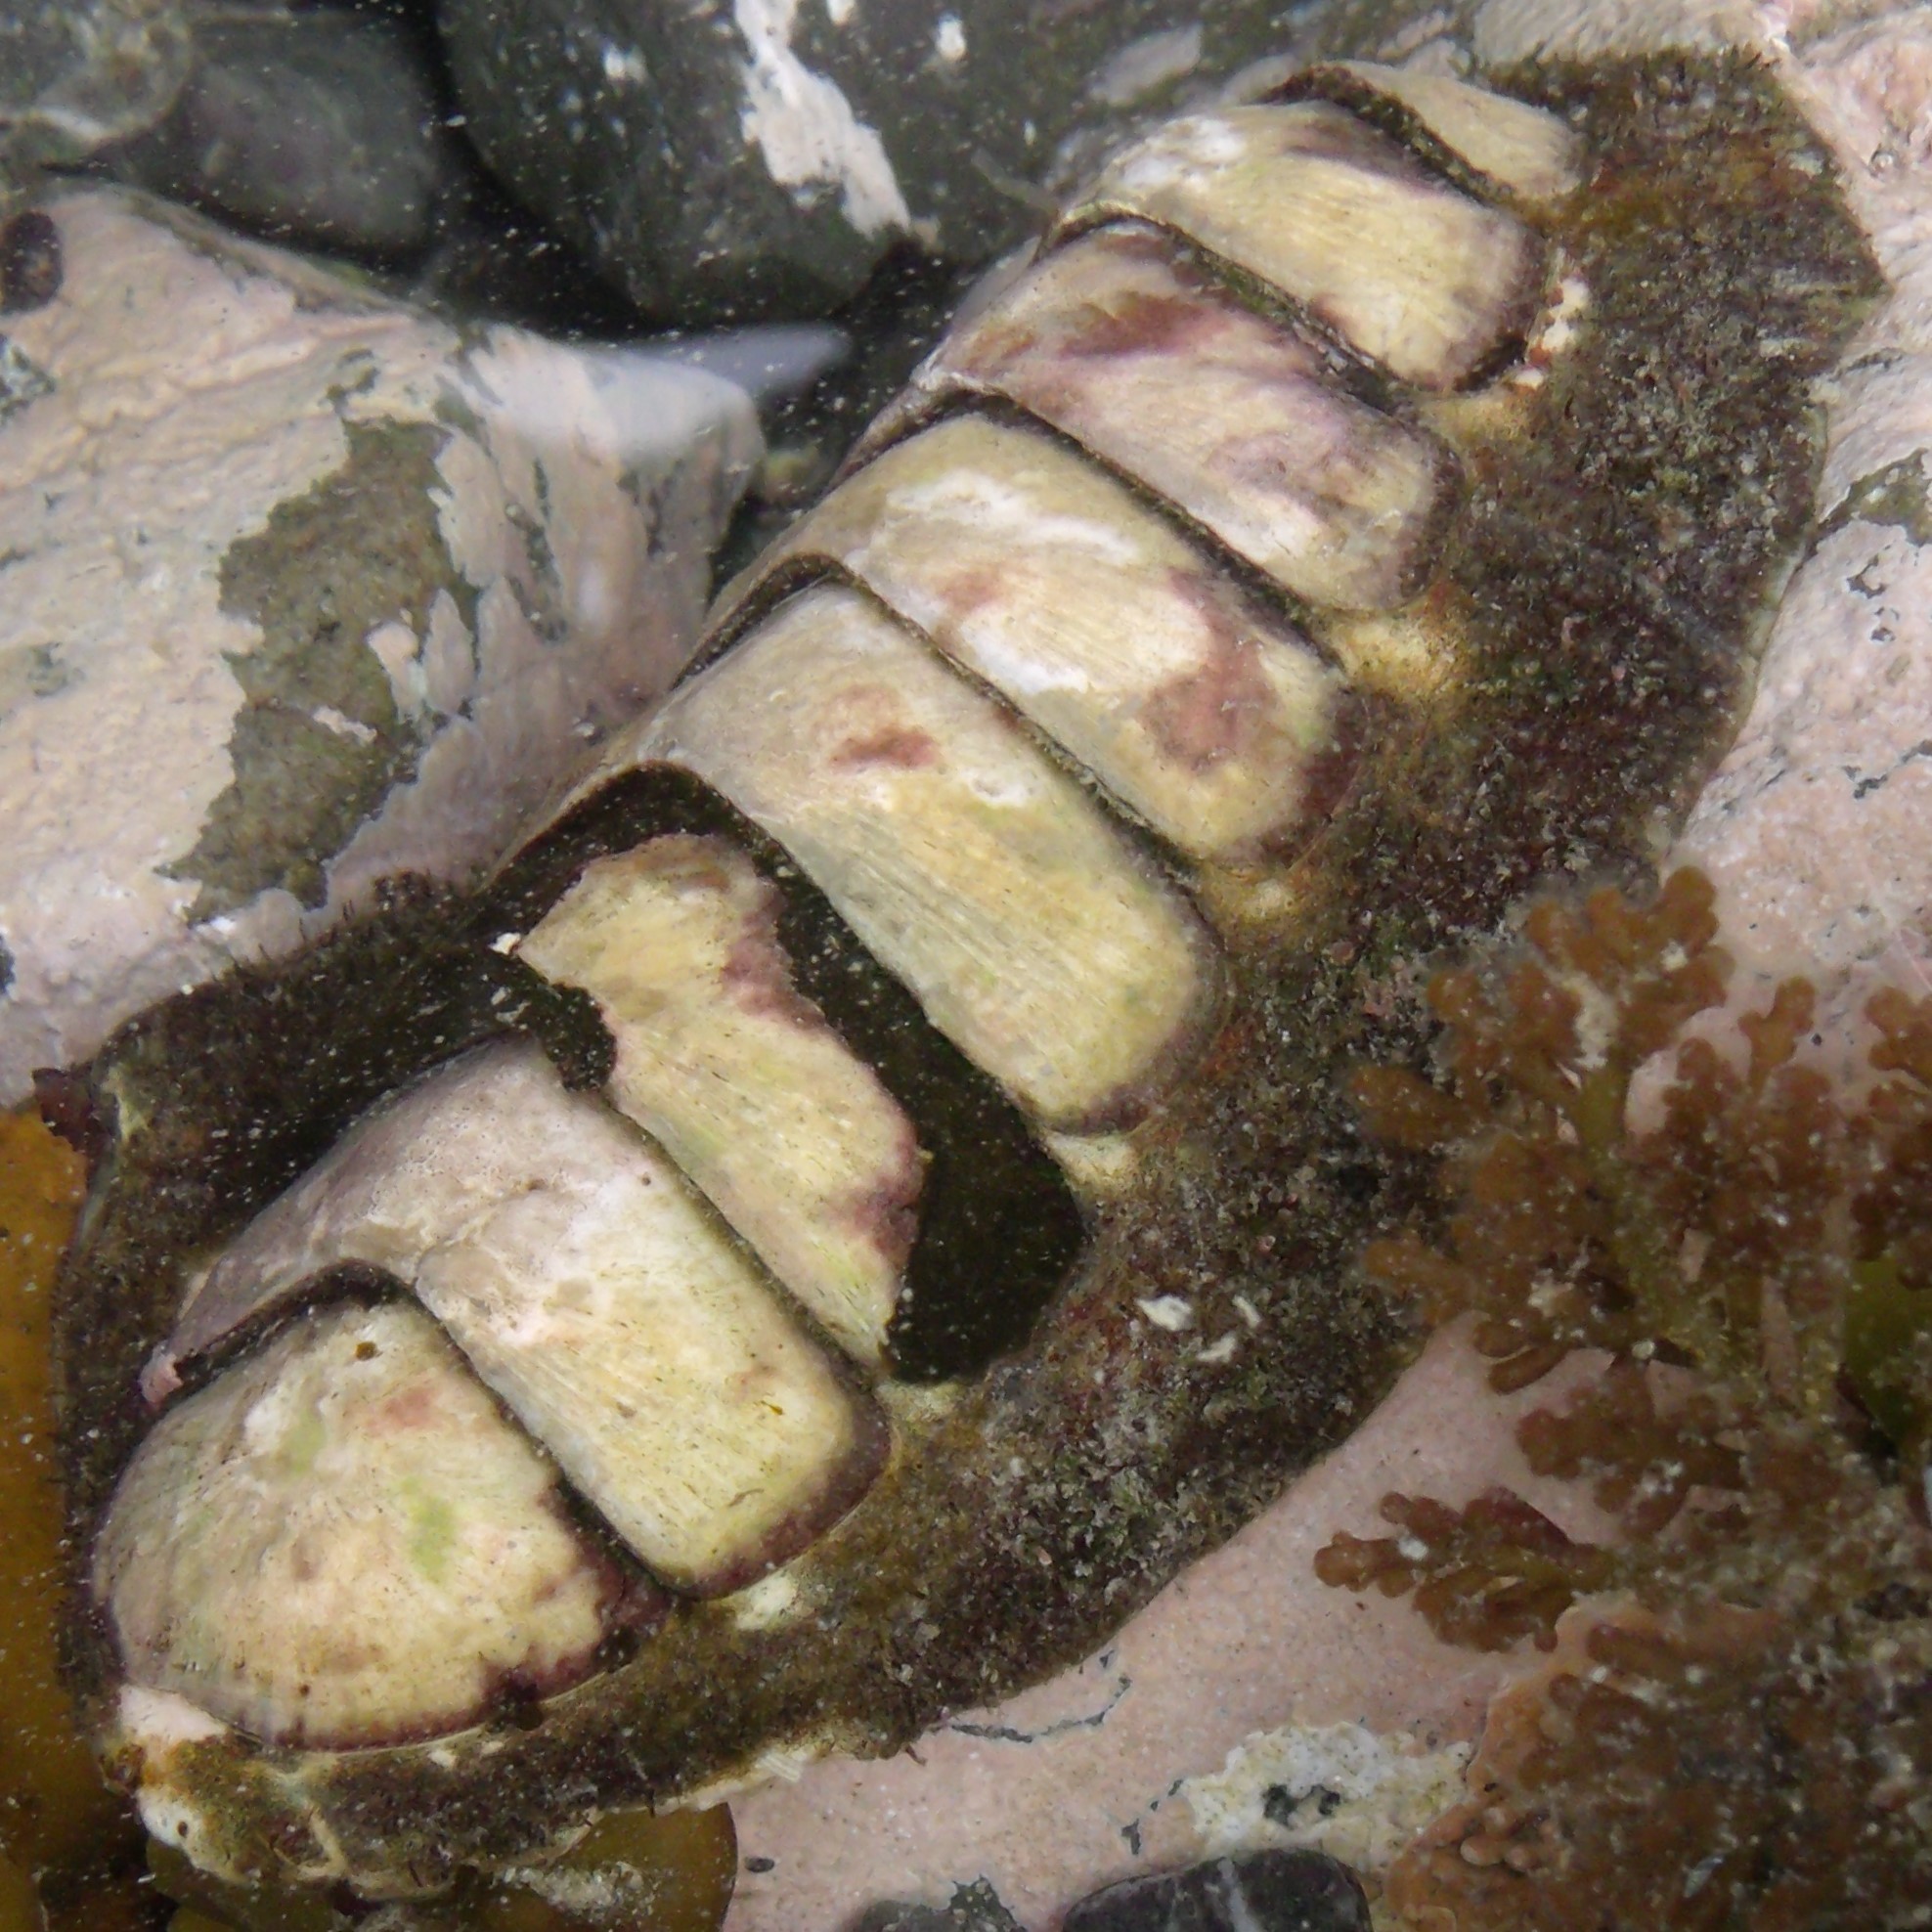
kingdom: Animalia
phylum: Mollusca
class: Polyplacophora
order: Callochitonida
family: Callochitonidae
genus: Eudoxochiton
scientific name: Eudoxochiton nobilis
